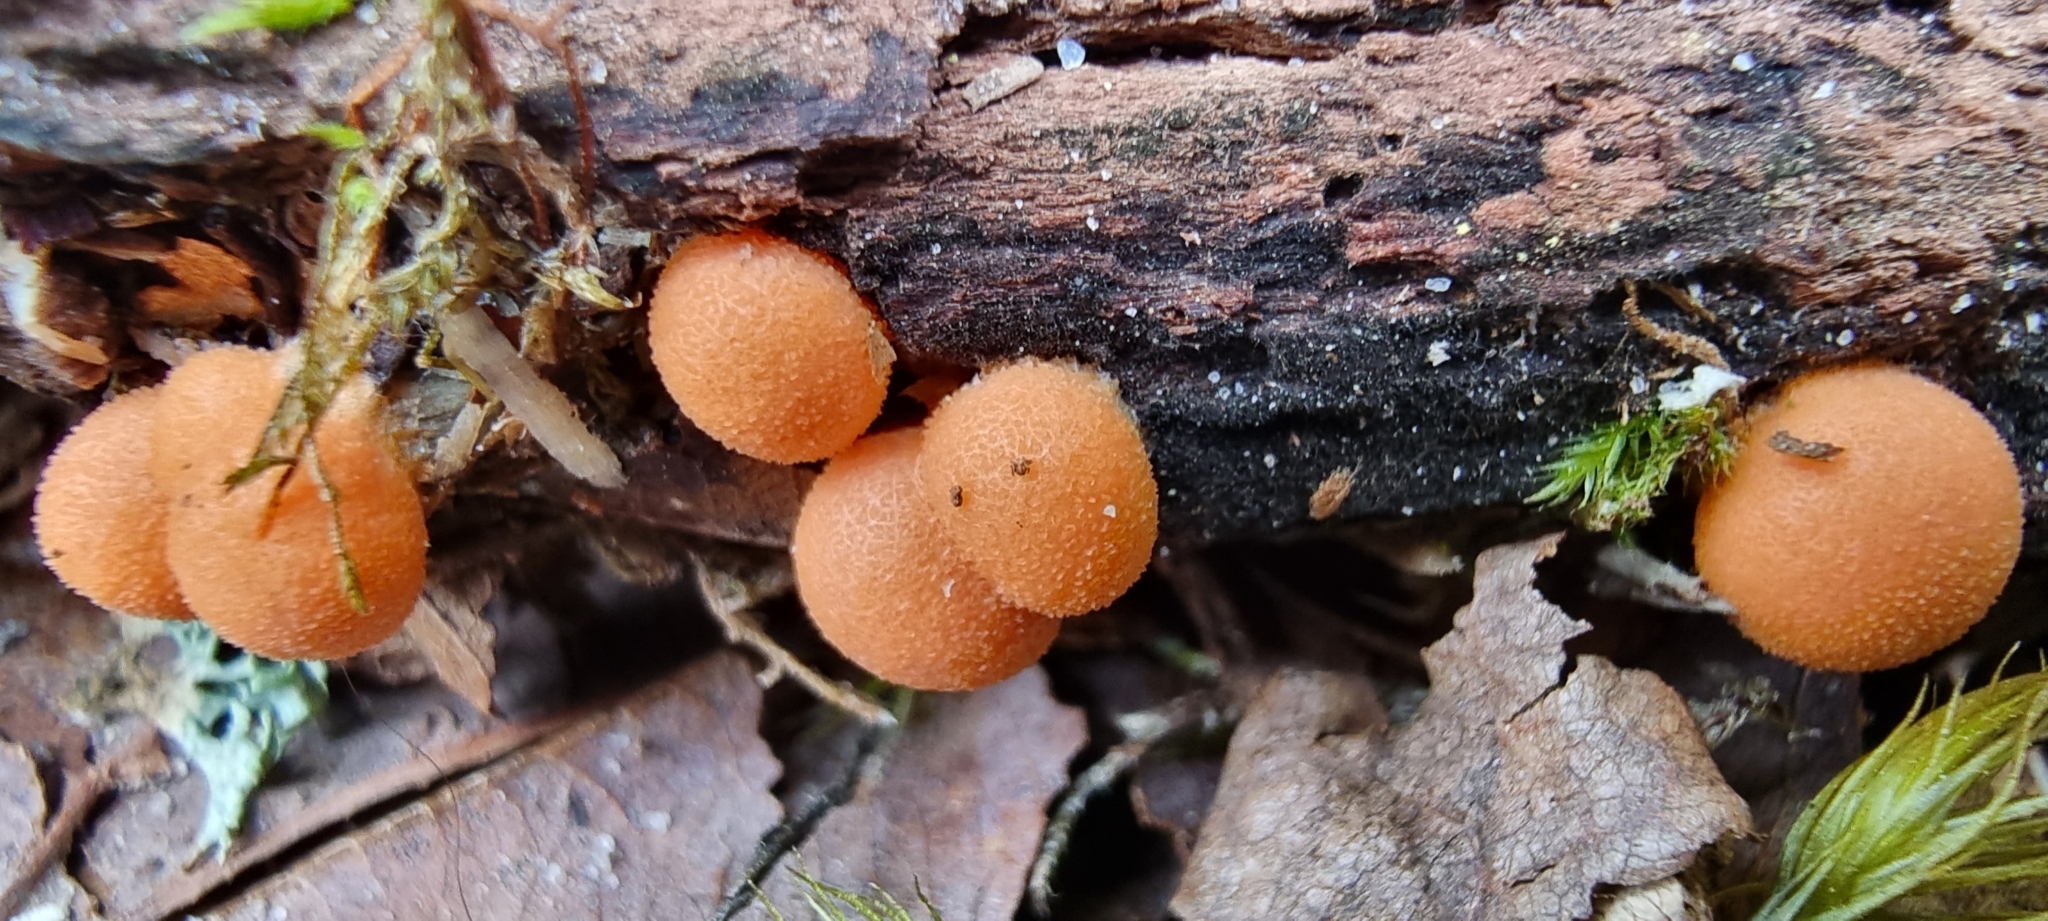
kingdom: Protozoa
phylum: Mycetozoa
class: Myxomycetes
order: Cribrariales
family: Tubiferaceae
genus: Lycogala
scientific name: Lycogala epidendrum
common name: Wolf's milk
